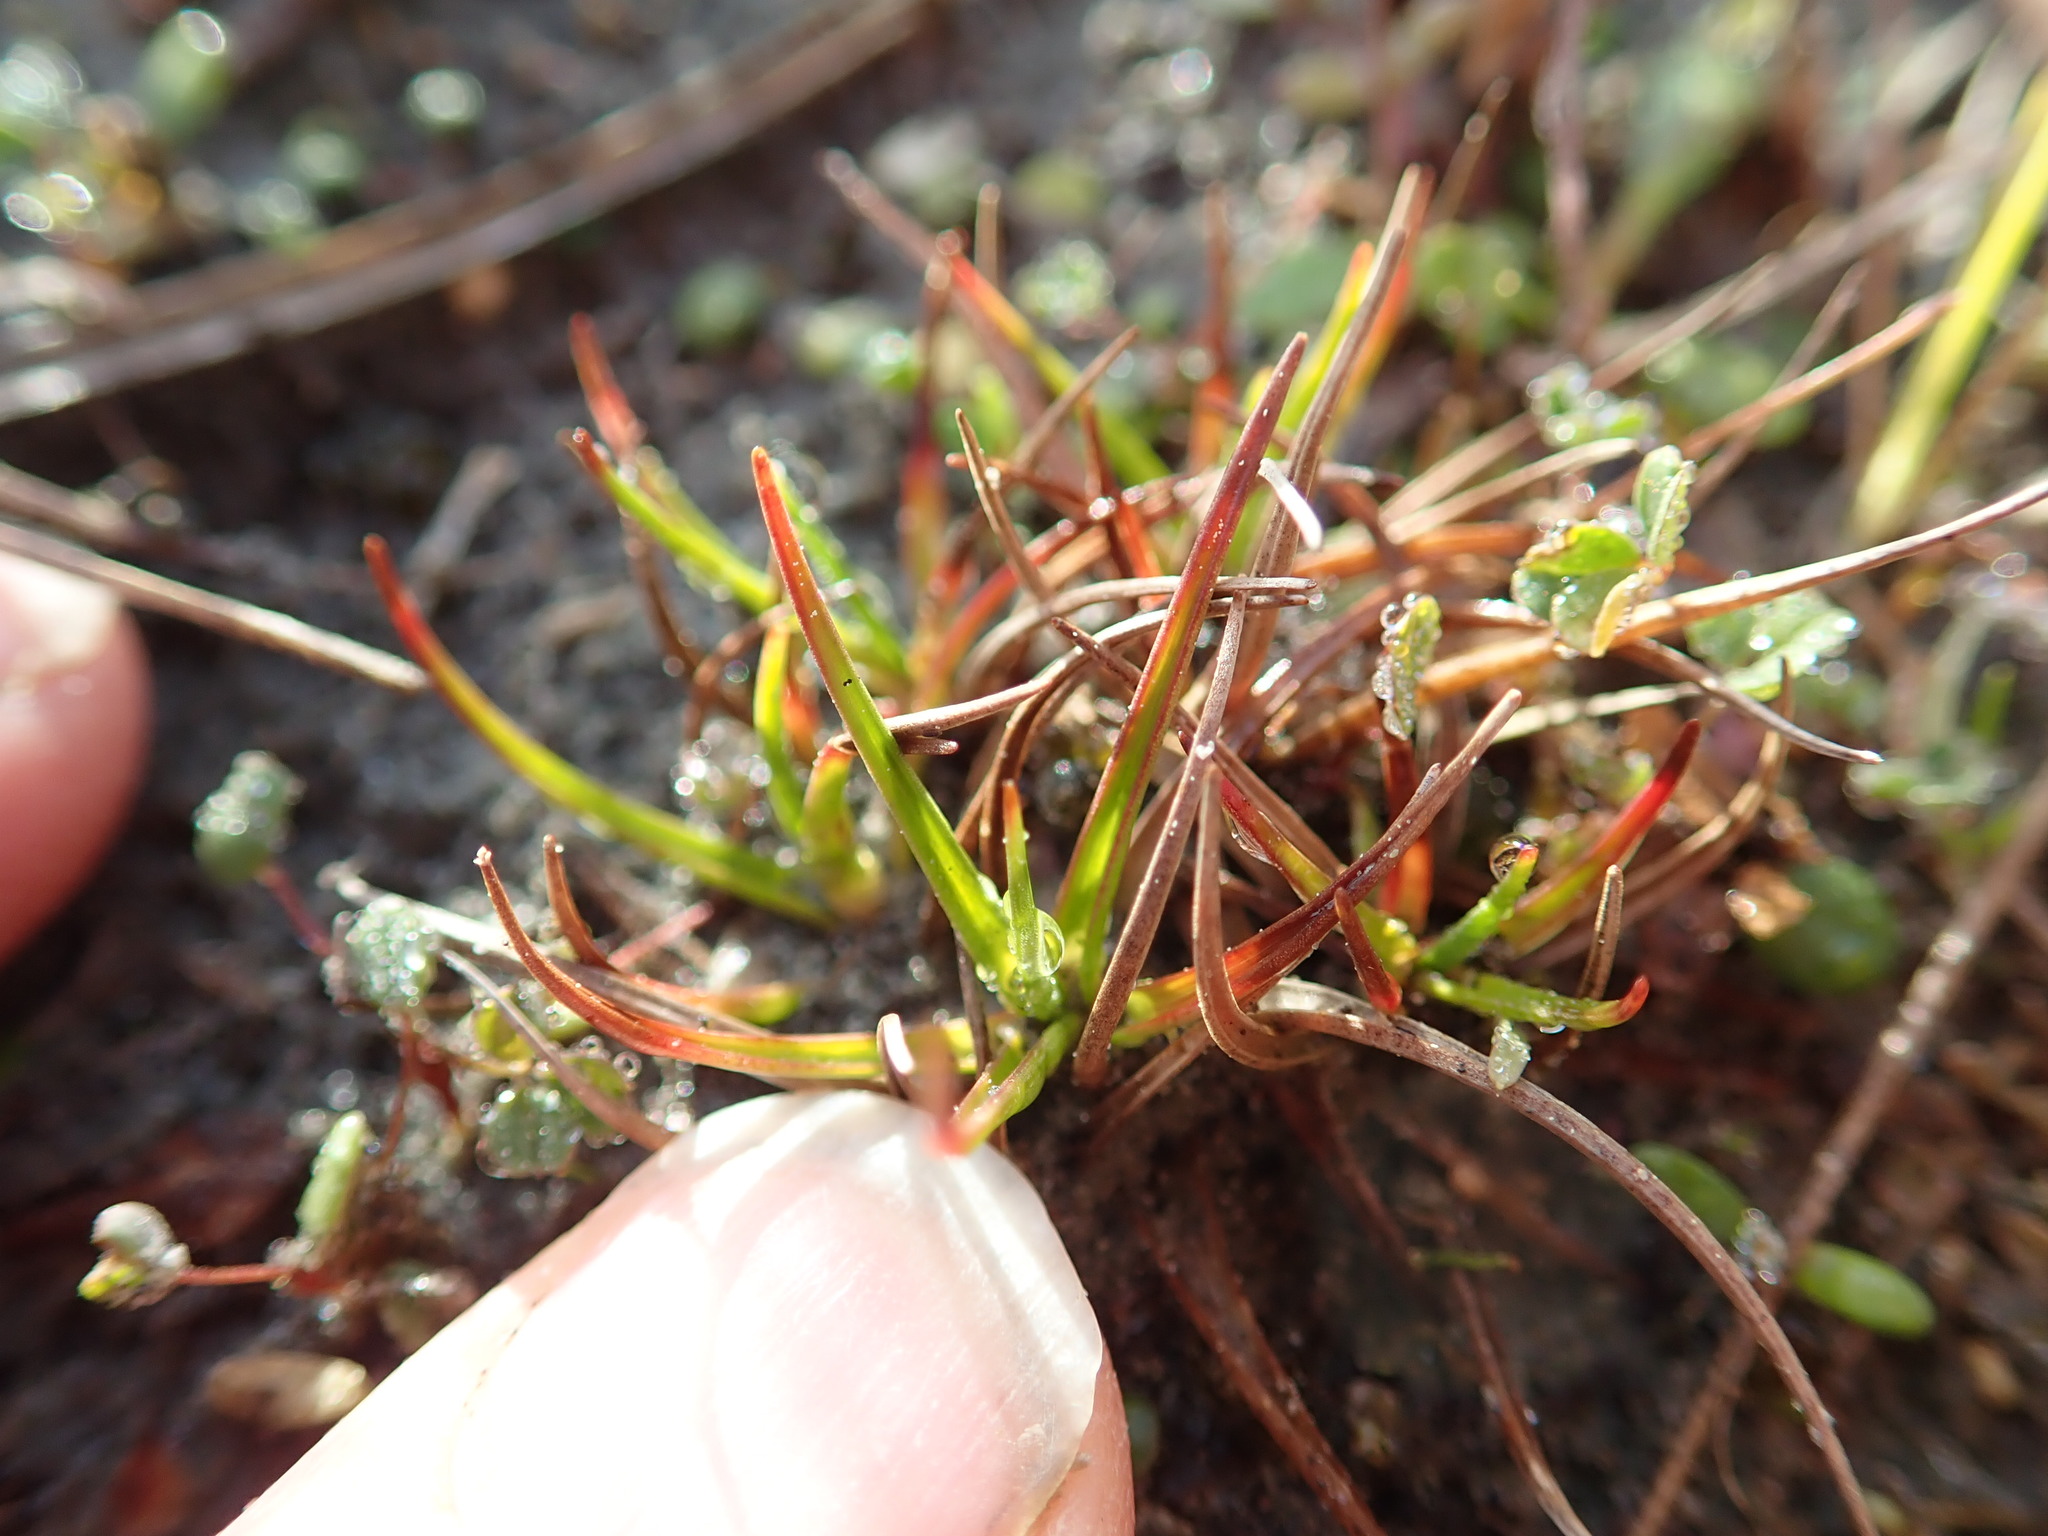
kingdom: Plantae
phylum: Tracheophyta
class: Liliopsida
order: Poales
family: Juncaceae
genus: Juncus
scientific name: Juncus caespiticius
